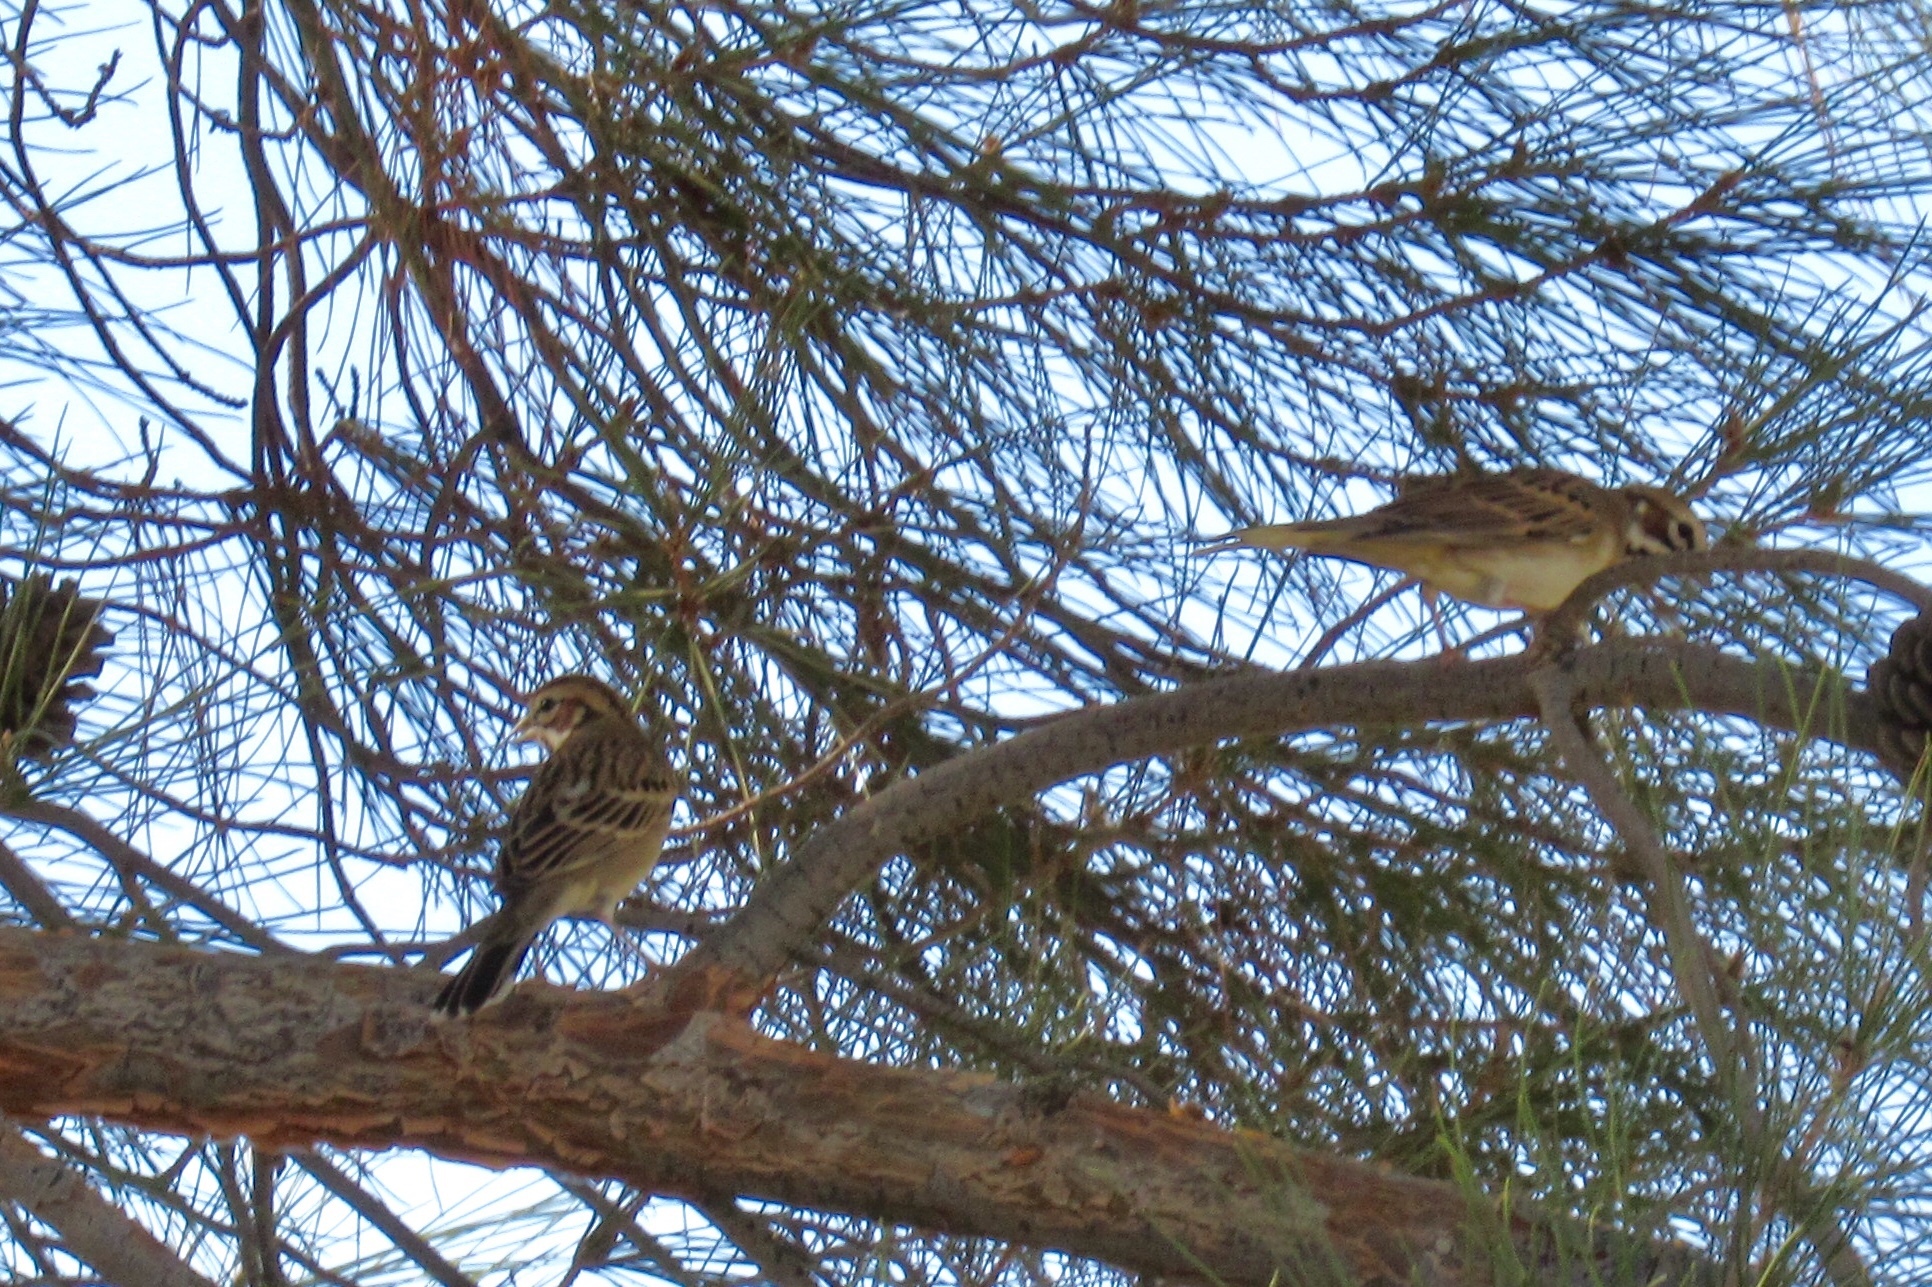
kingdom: Animalia
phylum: Chordata
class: Aves
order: Passeriformes
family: Passerellidae
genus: Chondestes
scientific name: Chondestes grammacus
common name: Lark sparrow
